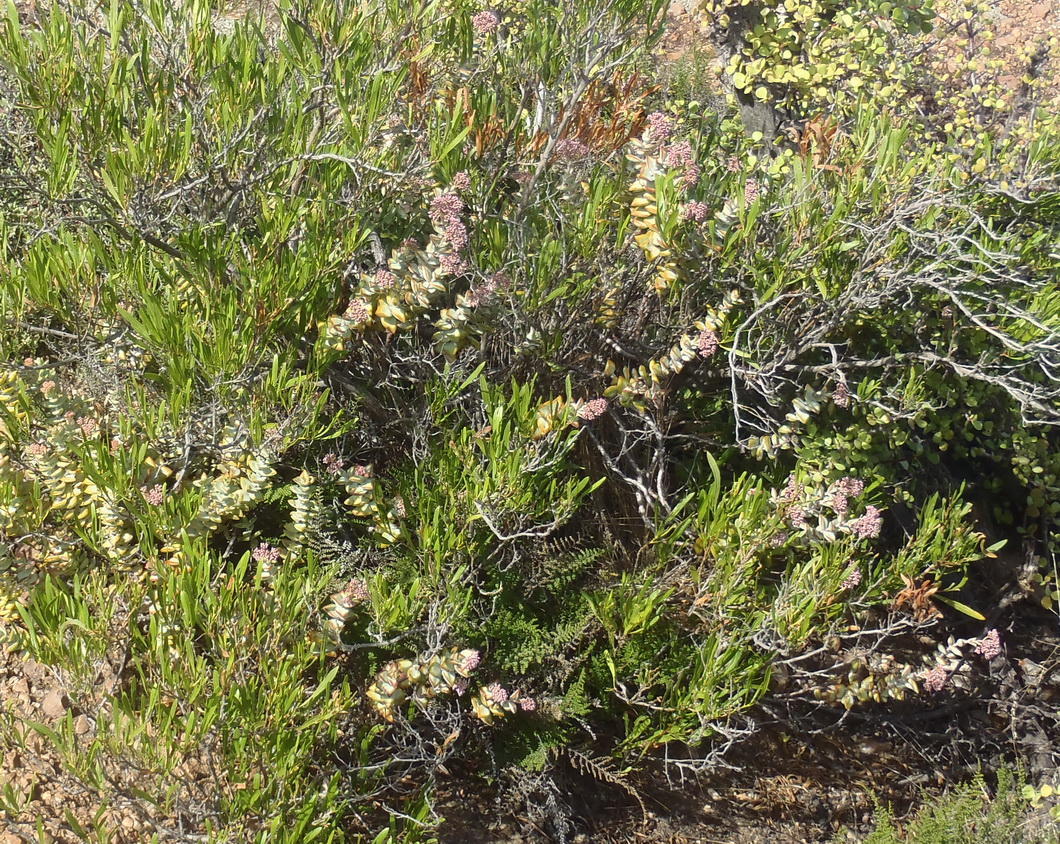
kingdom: Plantae
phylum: Tracheophyta
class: Magnoliopsida
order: Saxifragales
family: Crassulaceae
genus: Crassula
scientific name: Crassula rupestris
